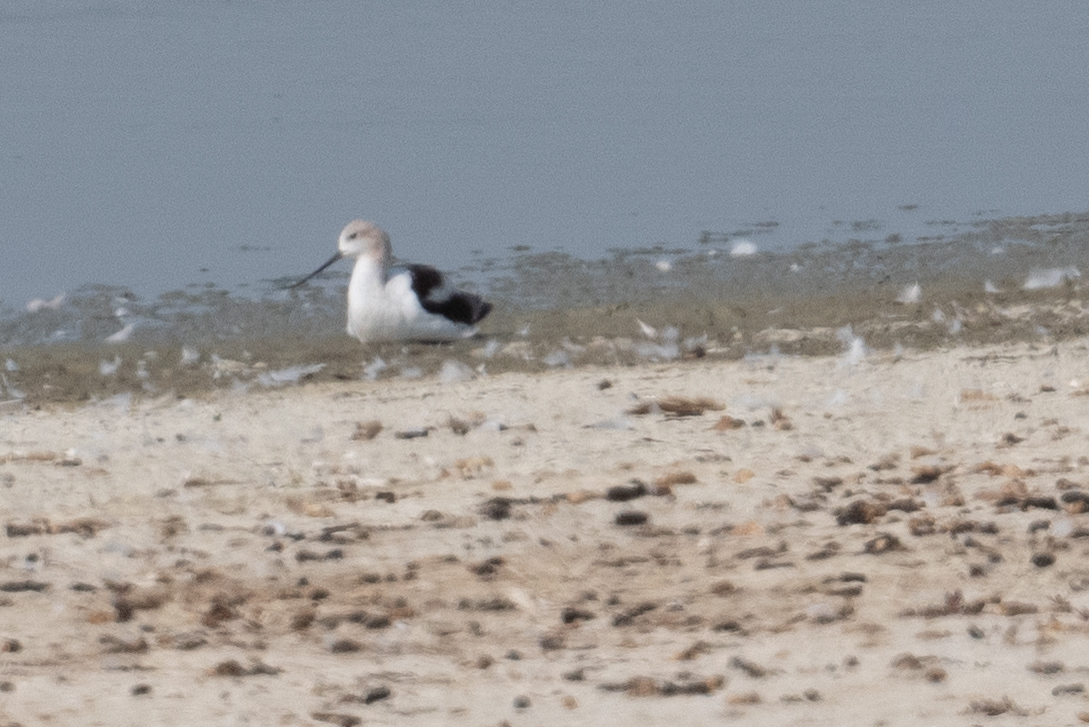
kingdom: Animalia
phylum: Chordata
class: Aves
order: Charadriiformes
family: Recurvirostridae
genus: Recurvirostra
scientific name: Recurvirostra americana
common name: American avocet
